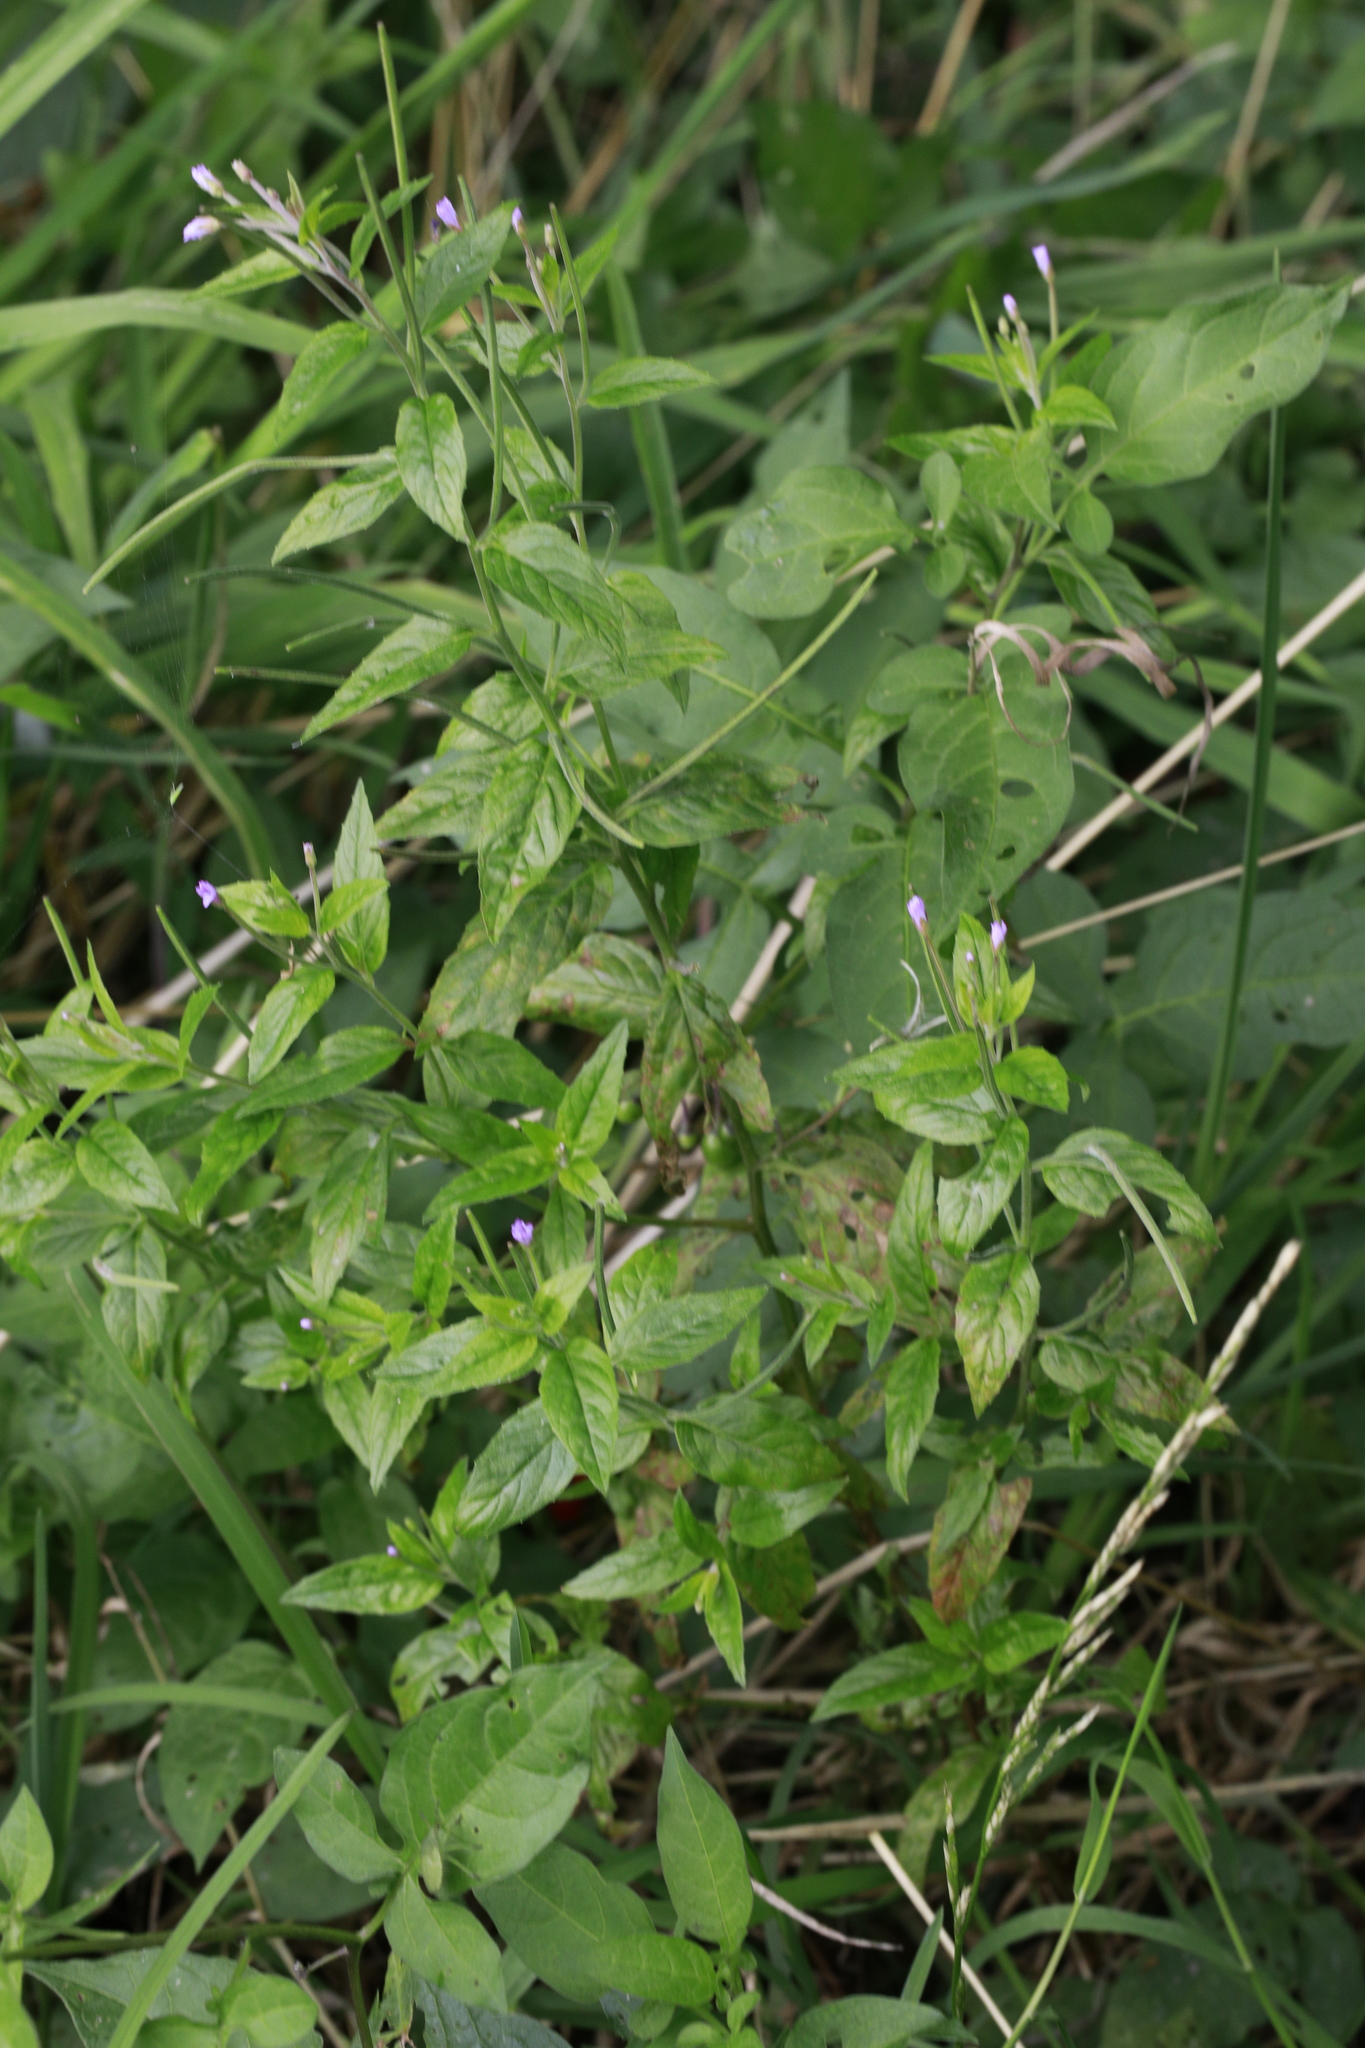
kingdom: Plantae
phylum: Tracheophyta
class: Magnoliopsida
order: Myrtales
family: Onagraceae
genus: Epilobium
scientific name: Epilobium montanum
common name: Broad-leaved willowherb
